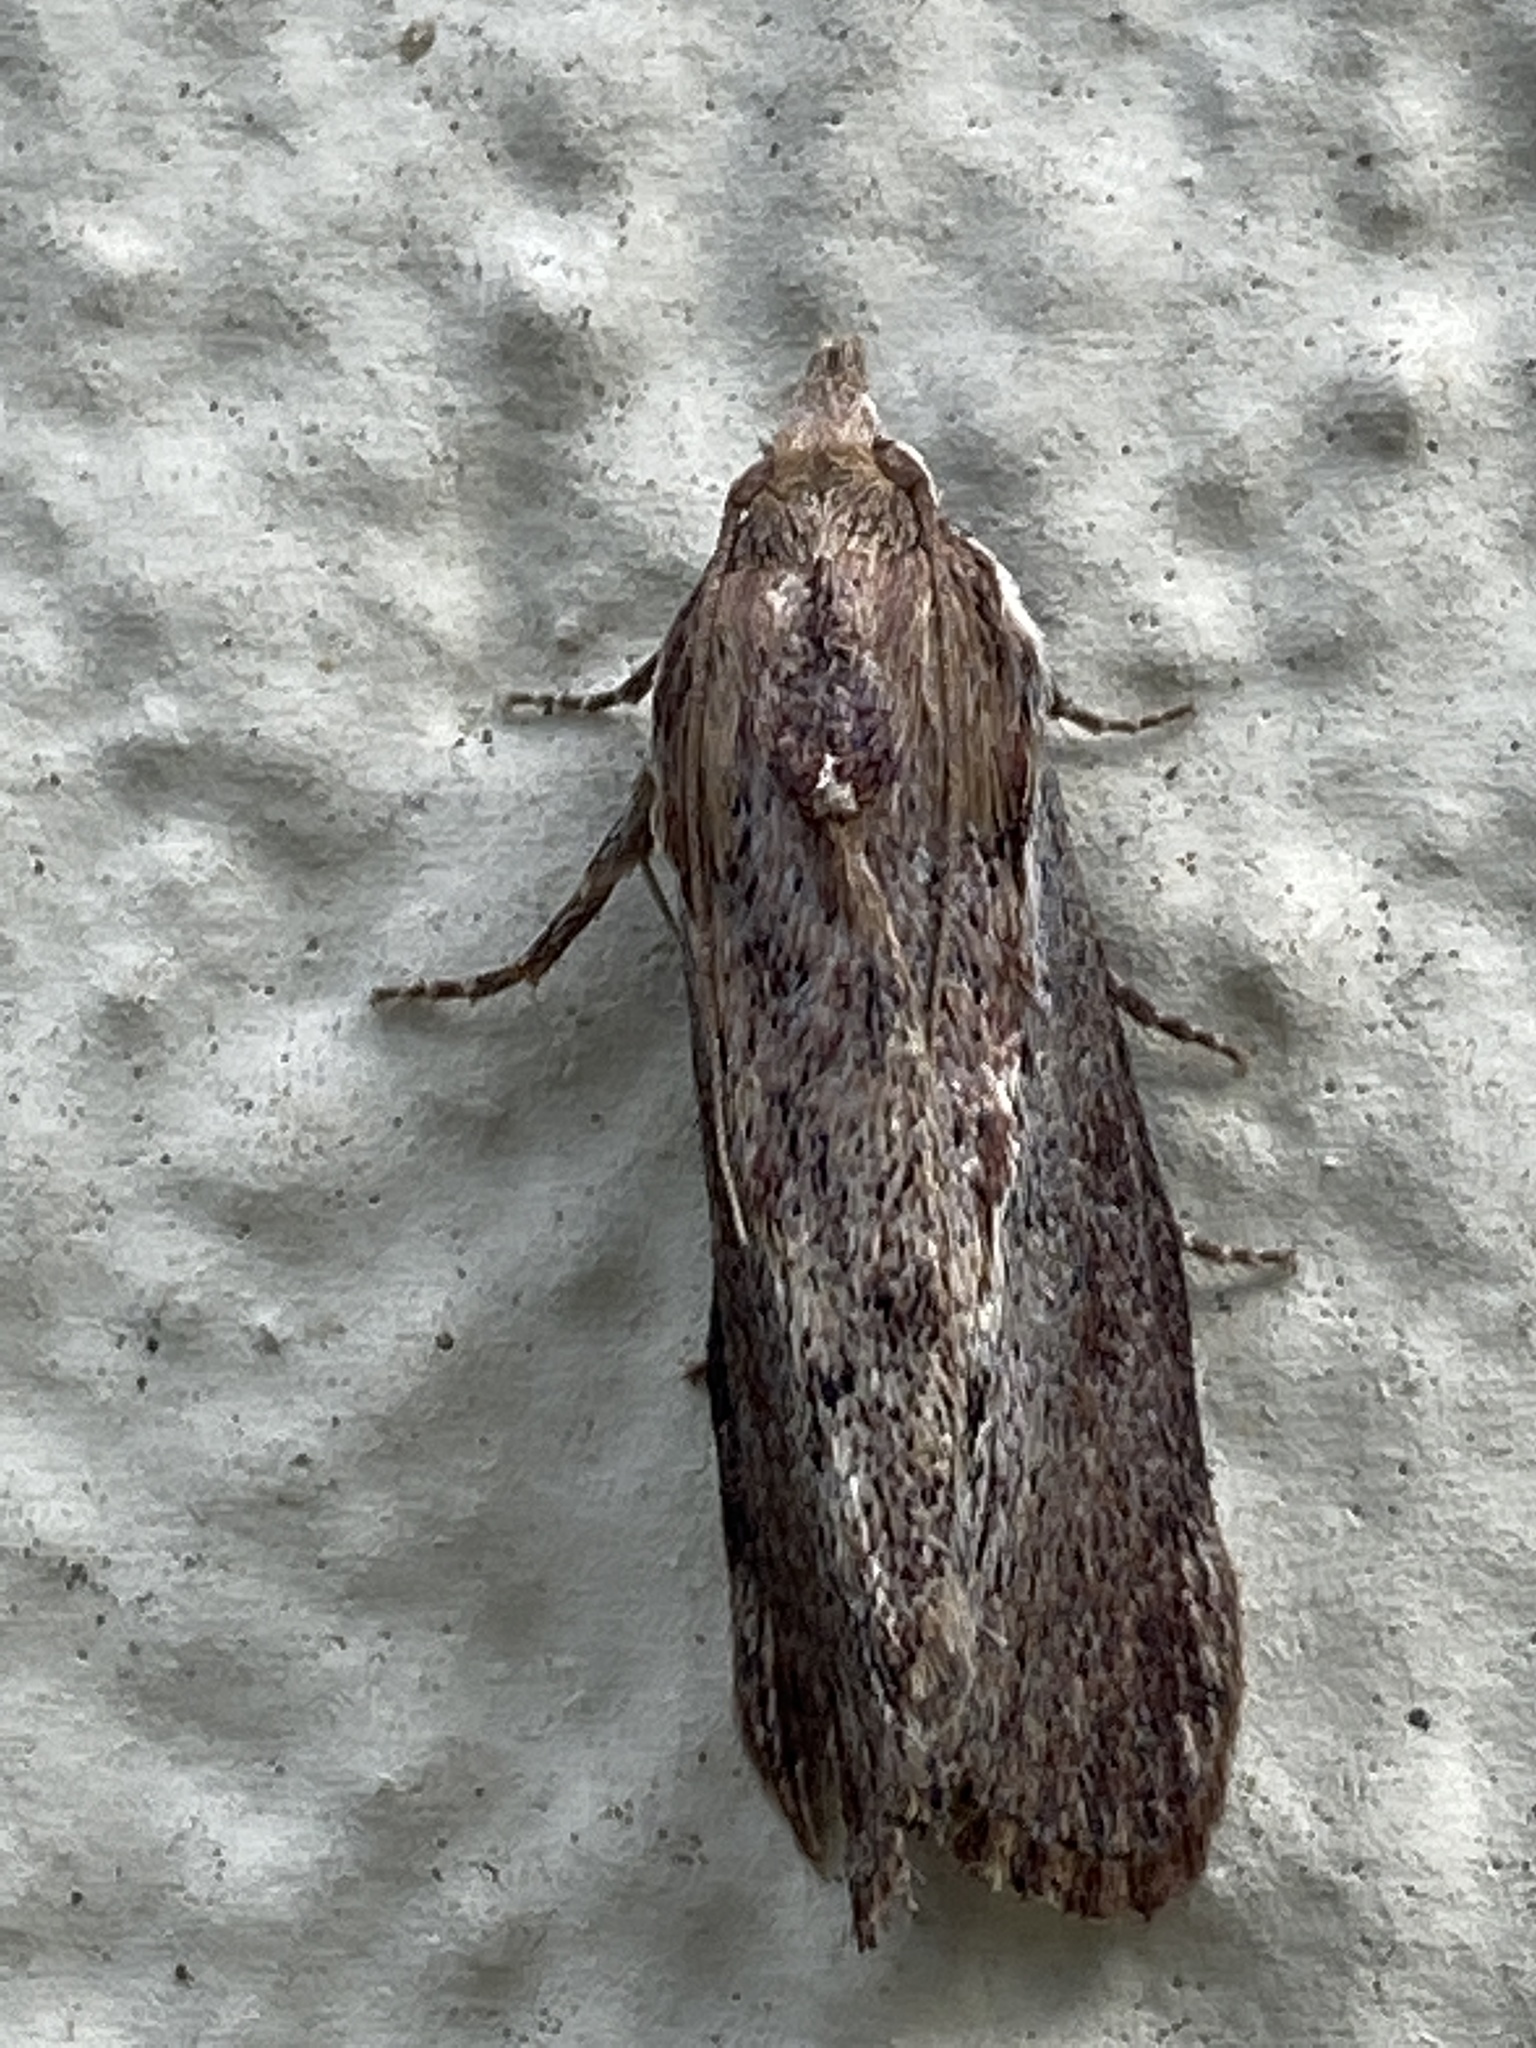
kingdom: Animalia
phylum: Arthropoda
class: Insecta
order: Lepidoptera
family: Pyralidae
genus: Galleria
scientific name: Galleria mellonella
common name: Greater wax moth
